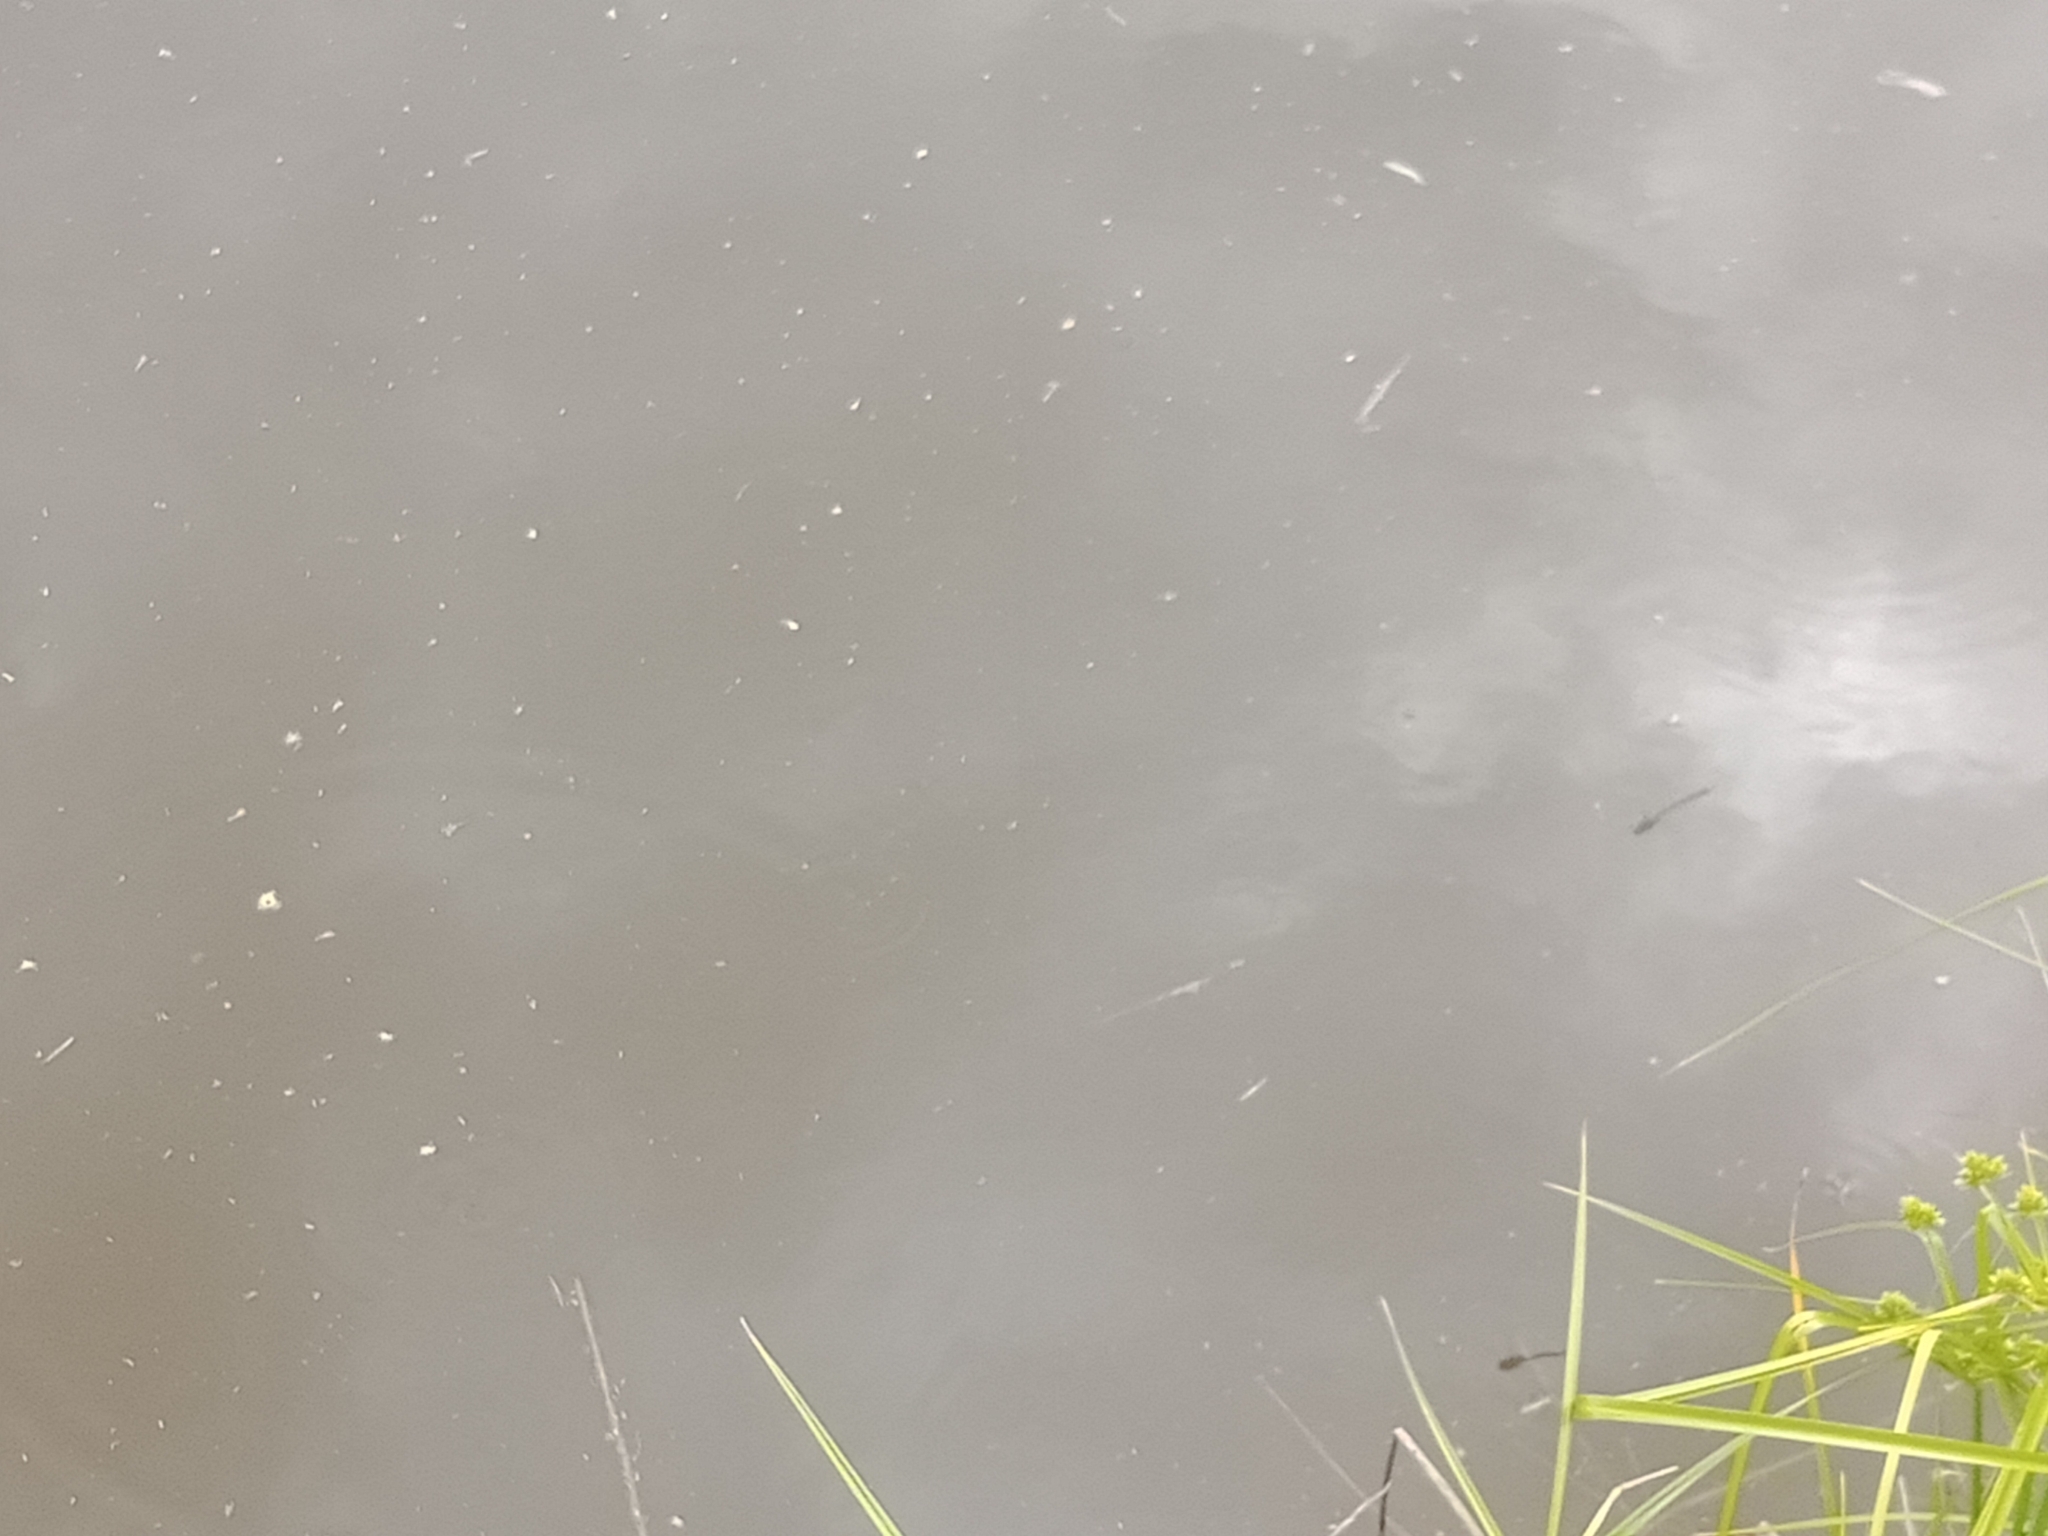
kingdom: Animalia
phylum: Arthropoda
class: Insecta
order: Odonata
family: Corduliidae
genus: Hemicordulia
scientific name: Hemicordulia tau
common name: Tau emerald
